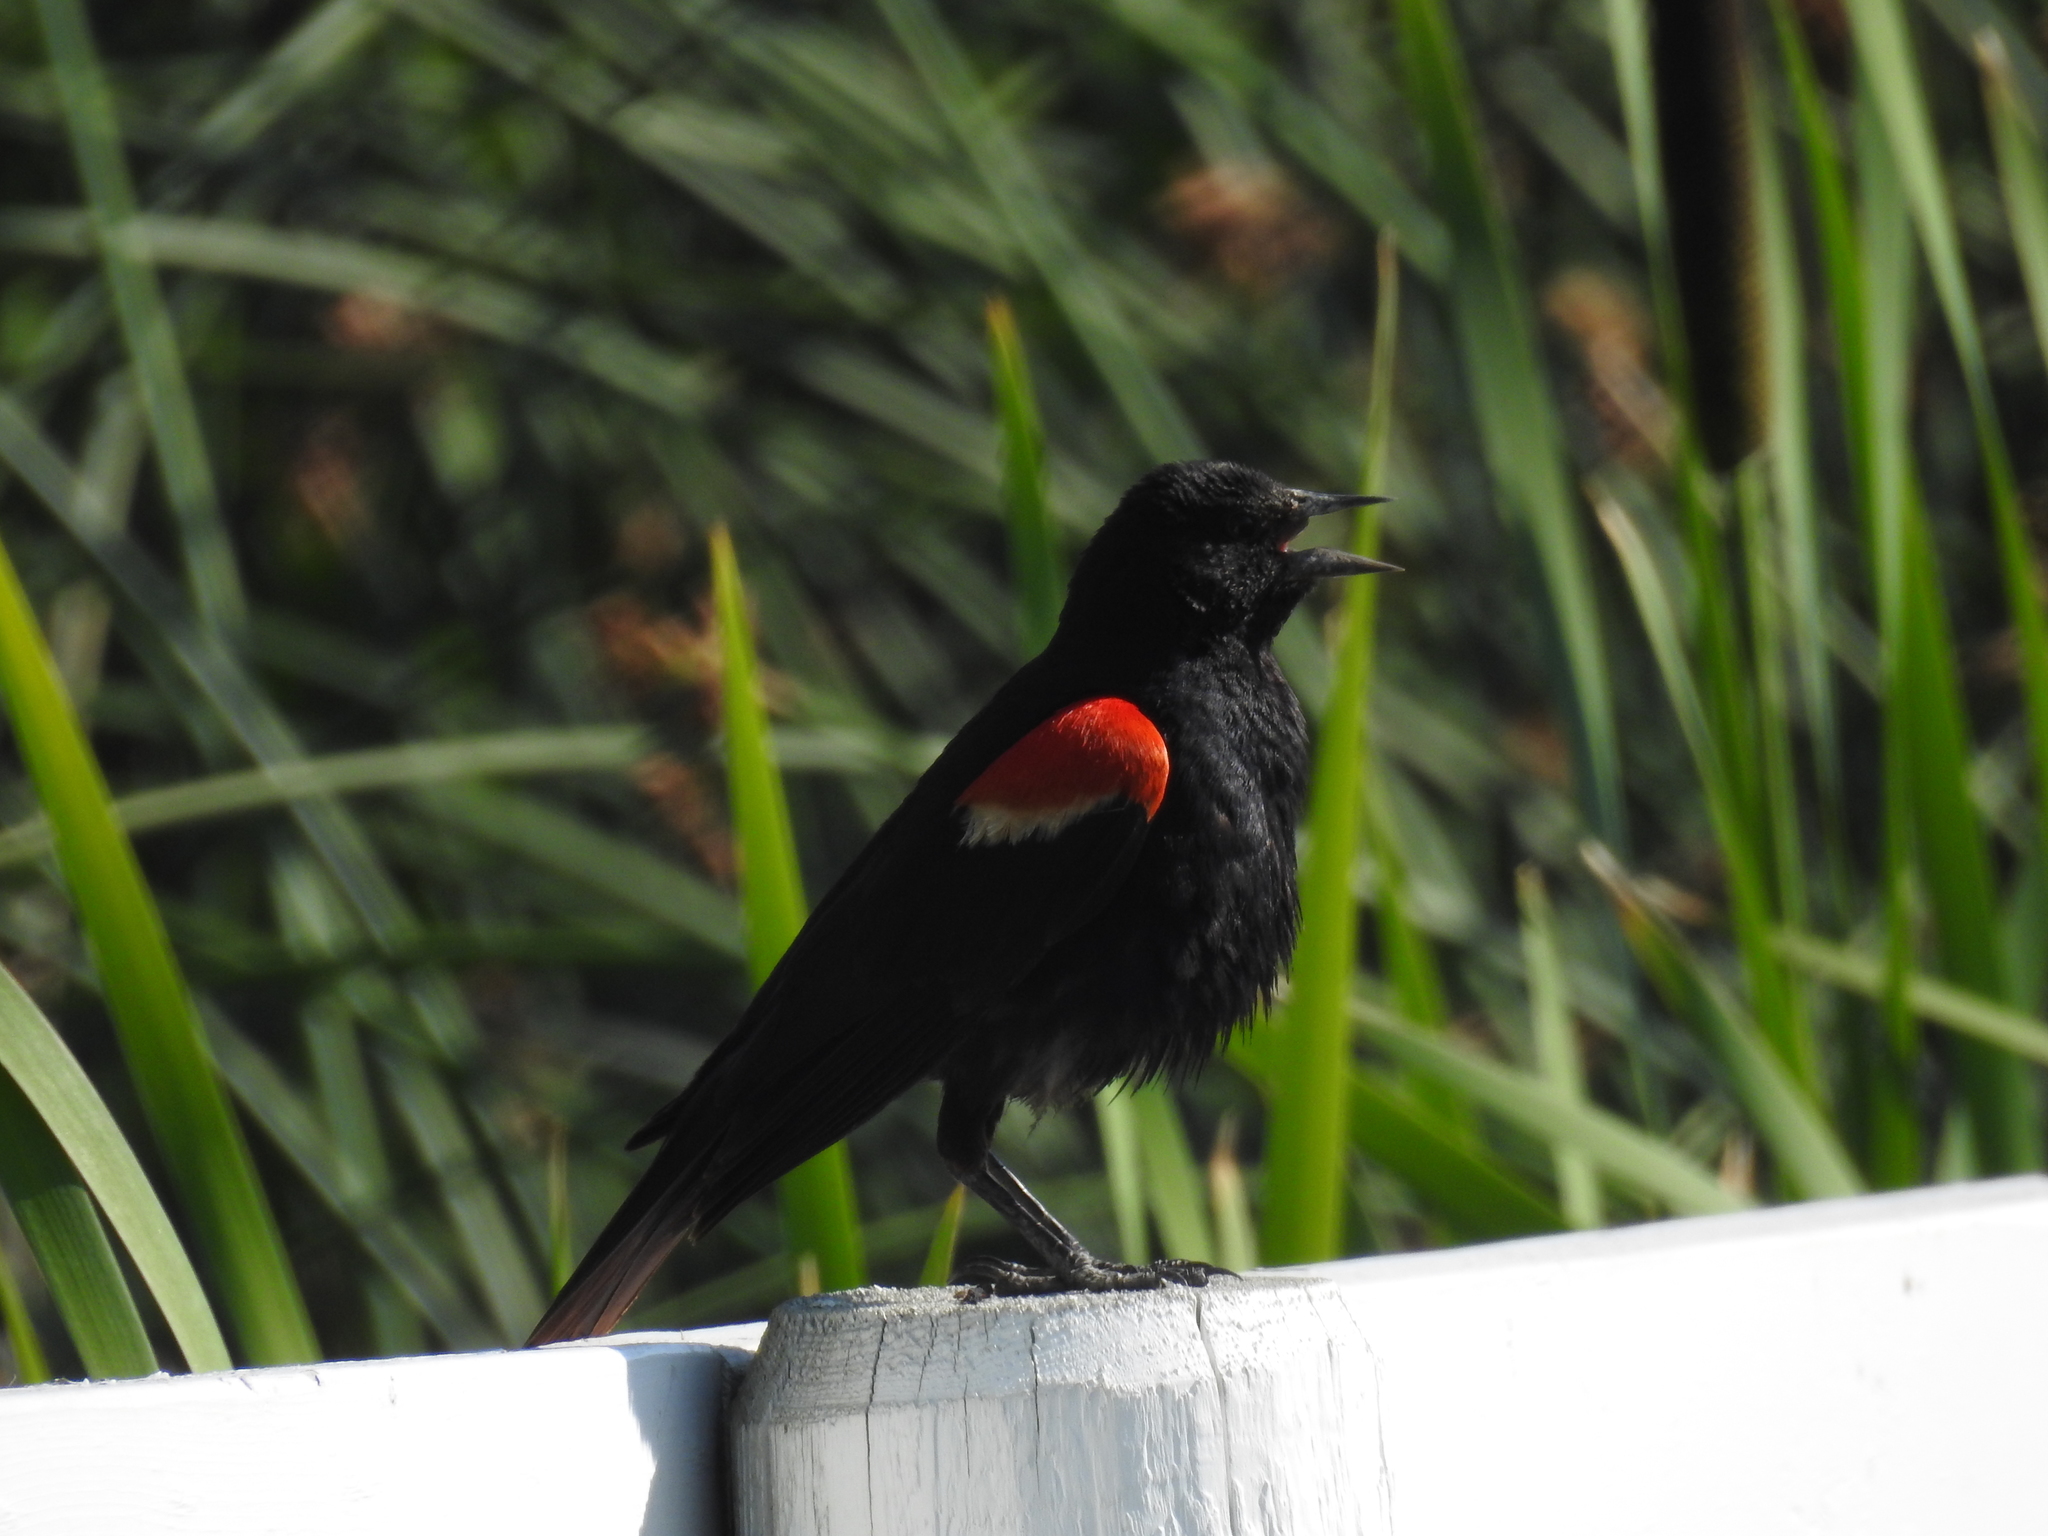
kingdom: Animalia
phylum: Chordata
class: Aves
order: Passeriformes
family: Icteridae
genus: Agelaius
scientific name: Agelaius phoeniceus
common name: Red-winged blackbird
